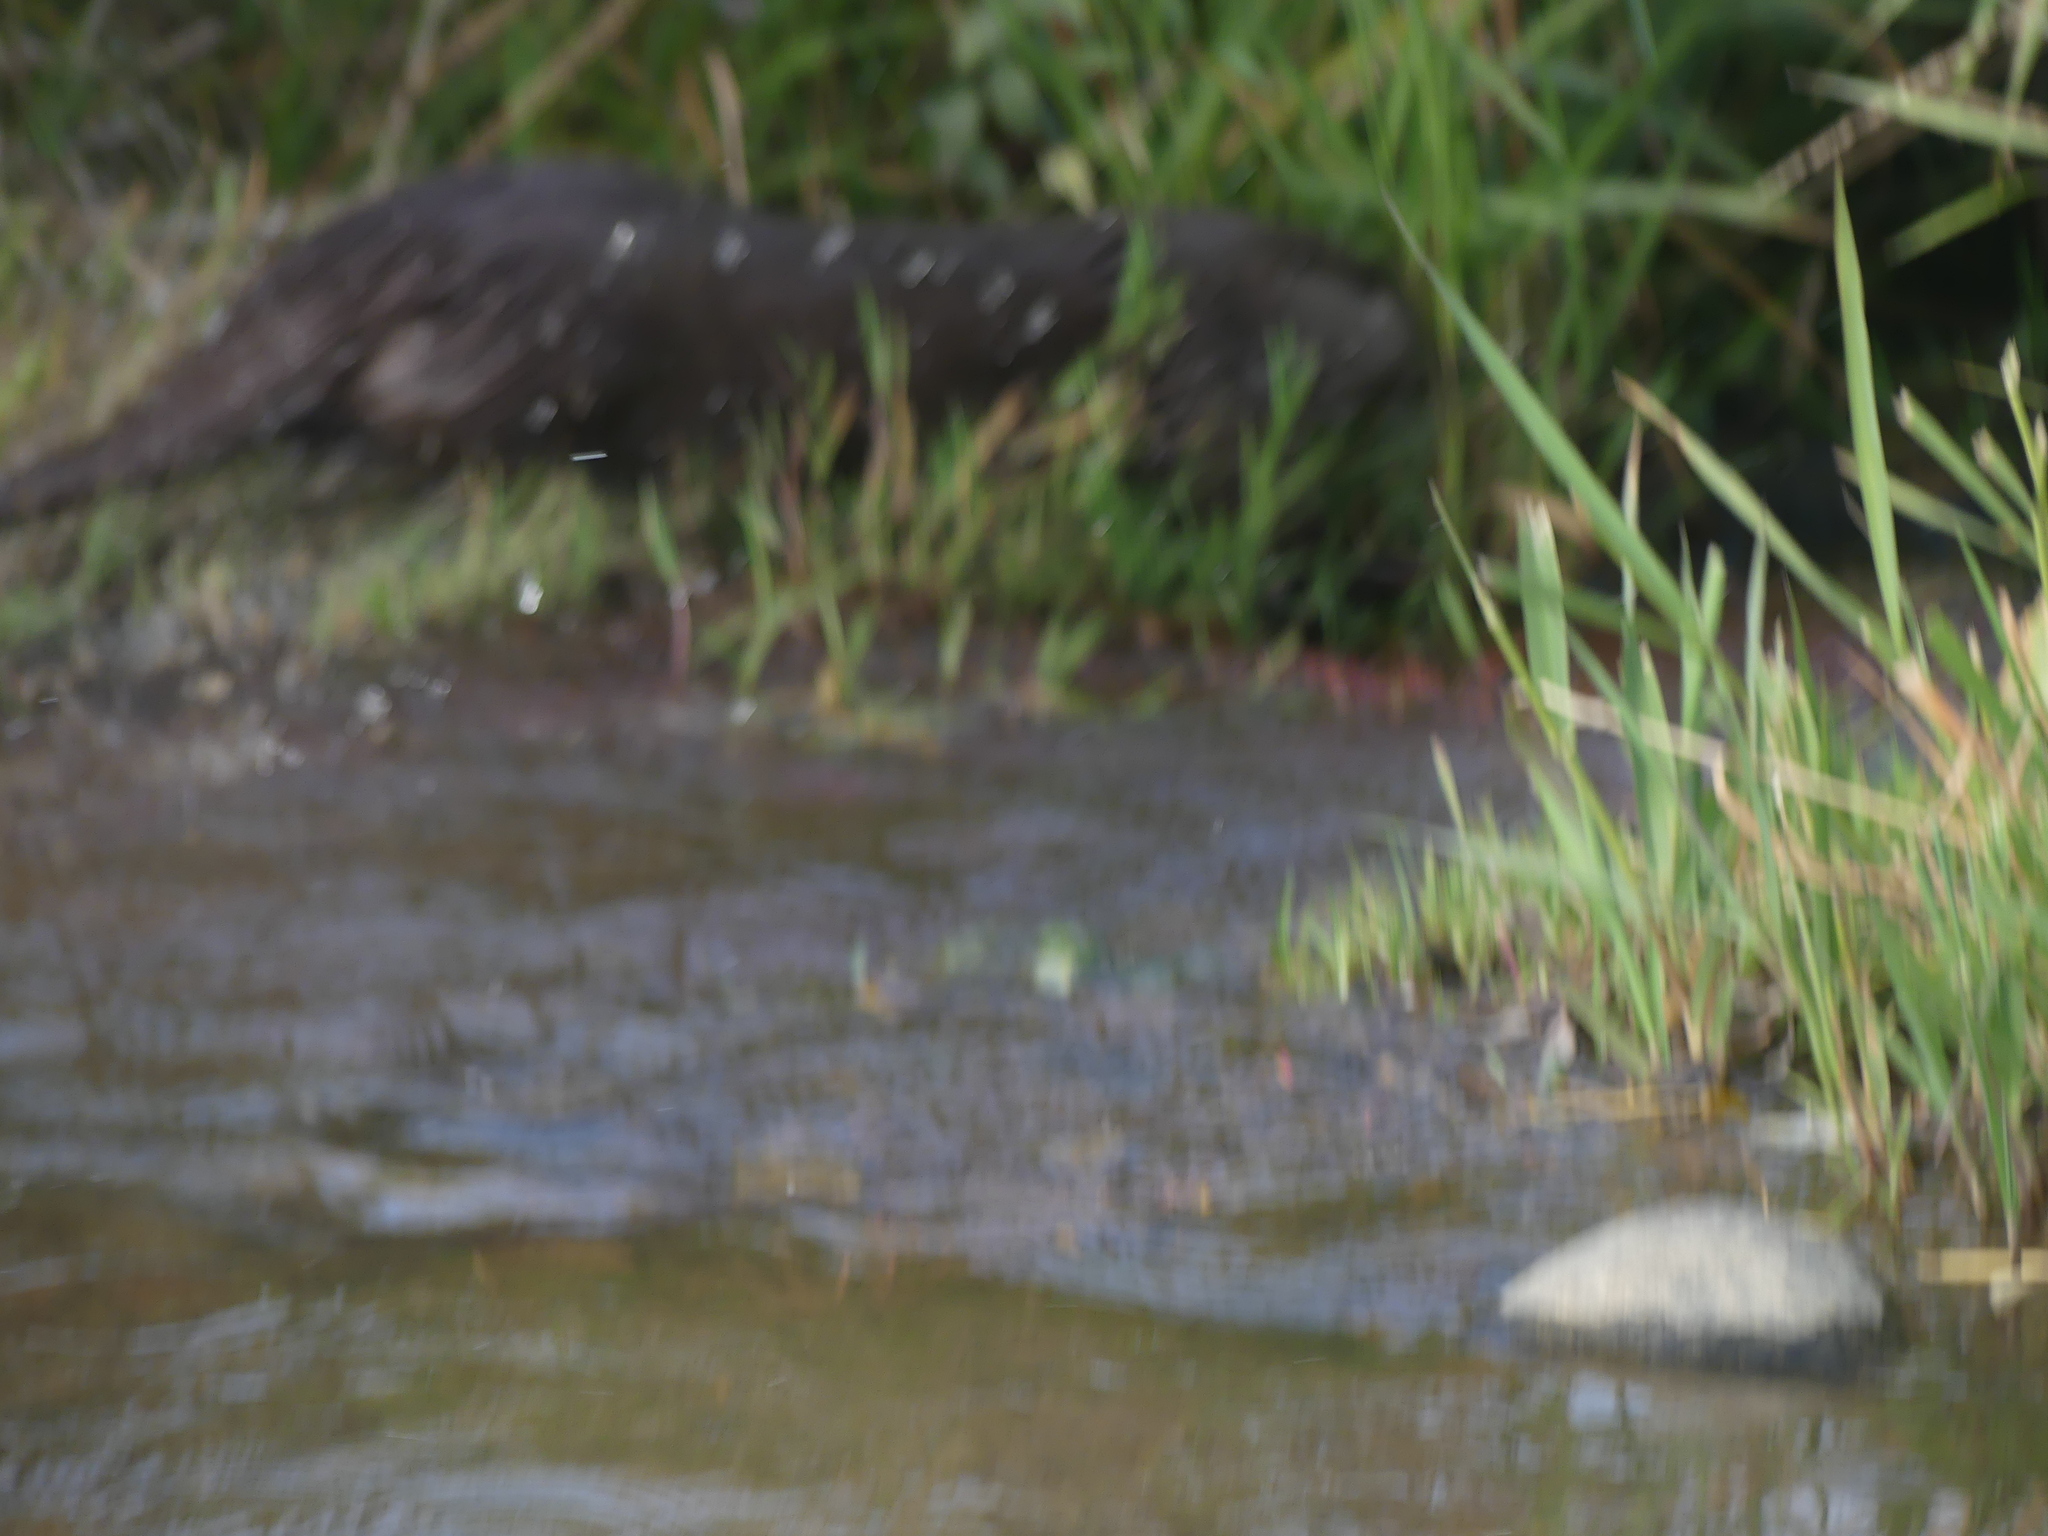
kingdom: Animalia
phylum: Chordata
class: Mammalia
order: Carnivora
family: Mustelidae
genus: Lutra
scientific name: Lutra lutra
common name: European otter
